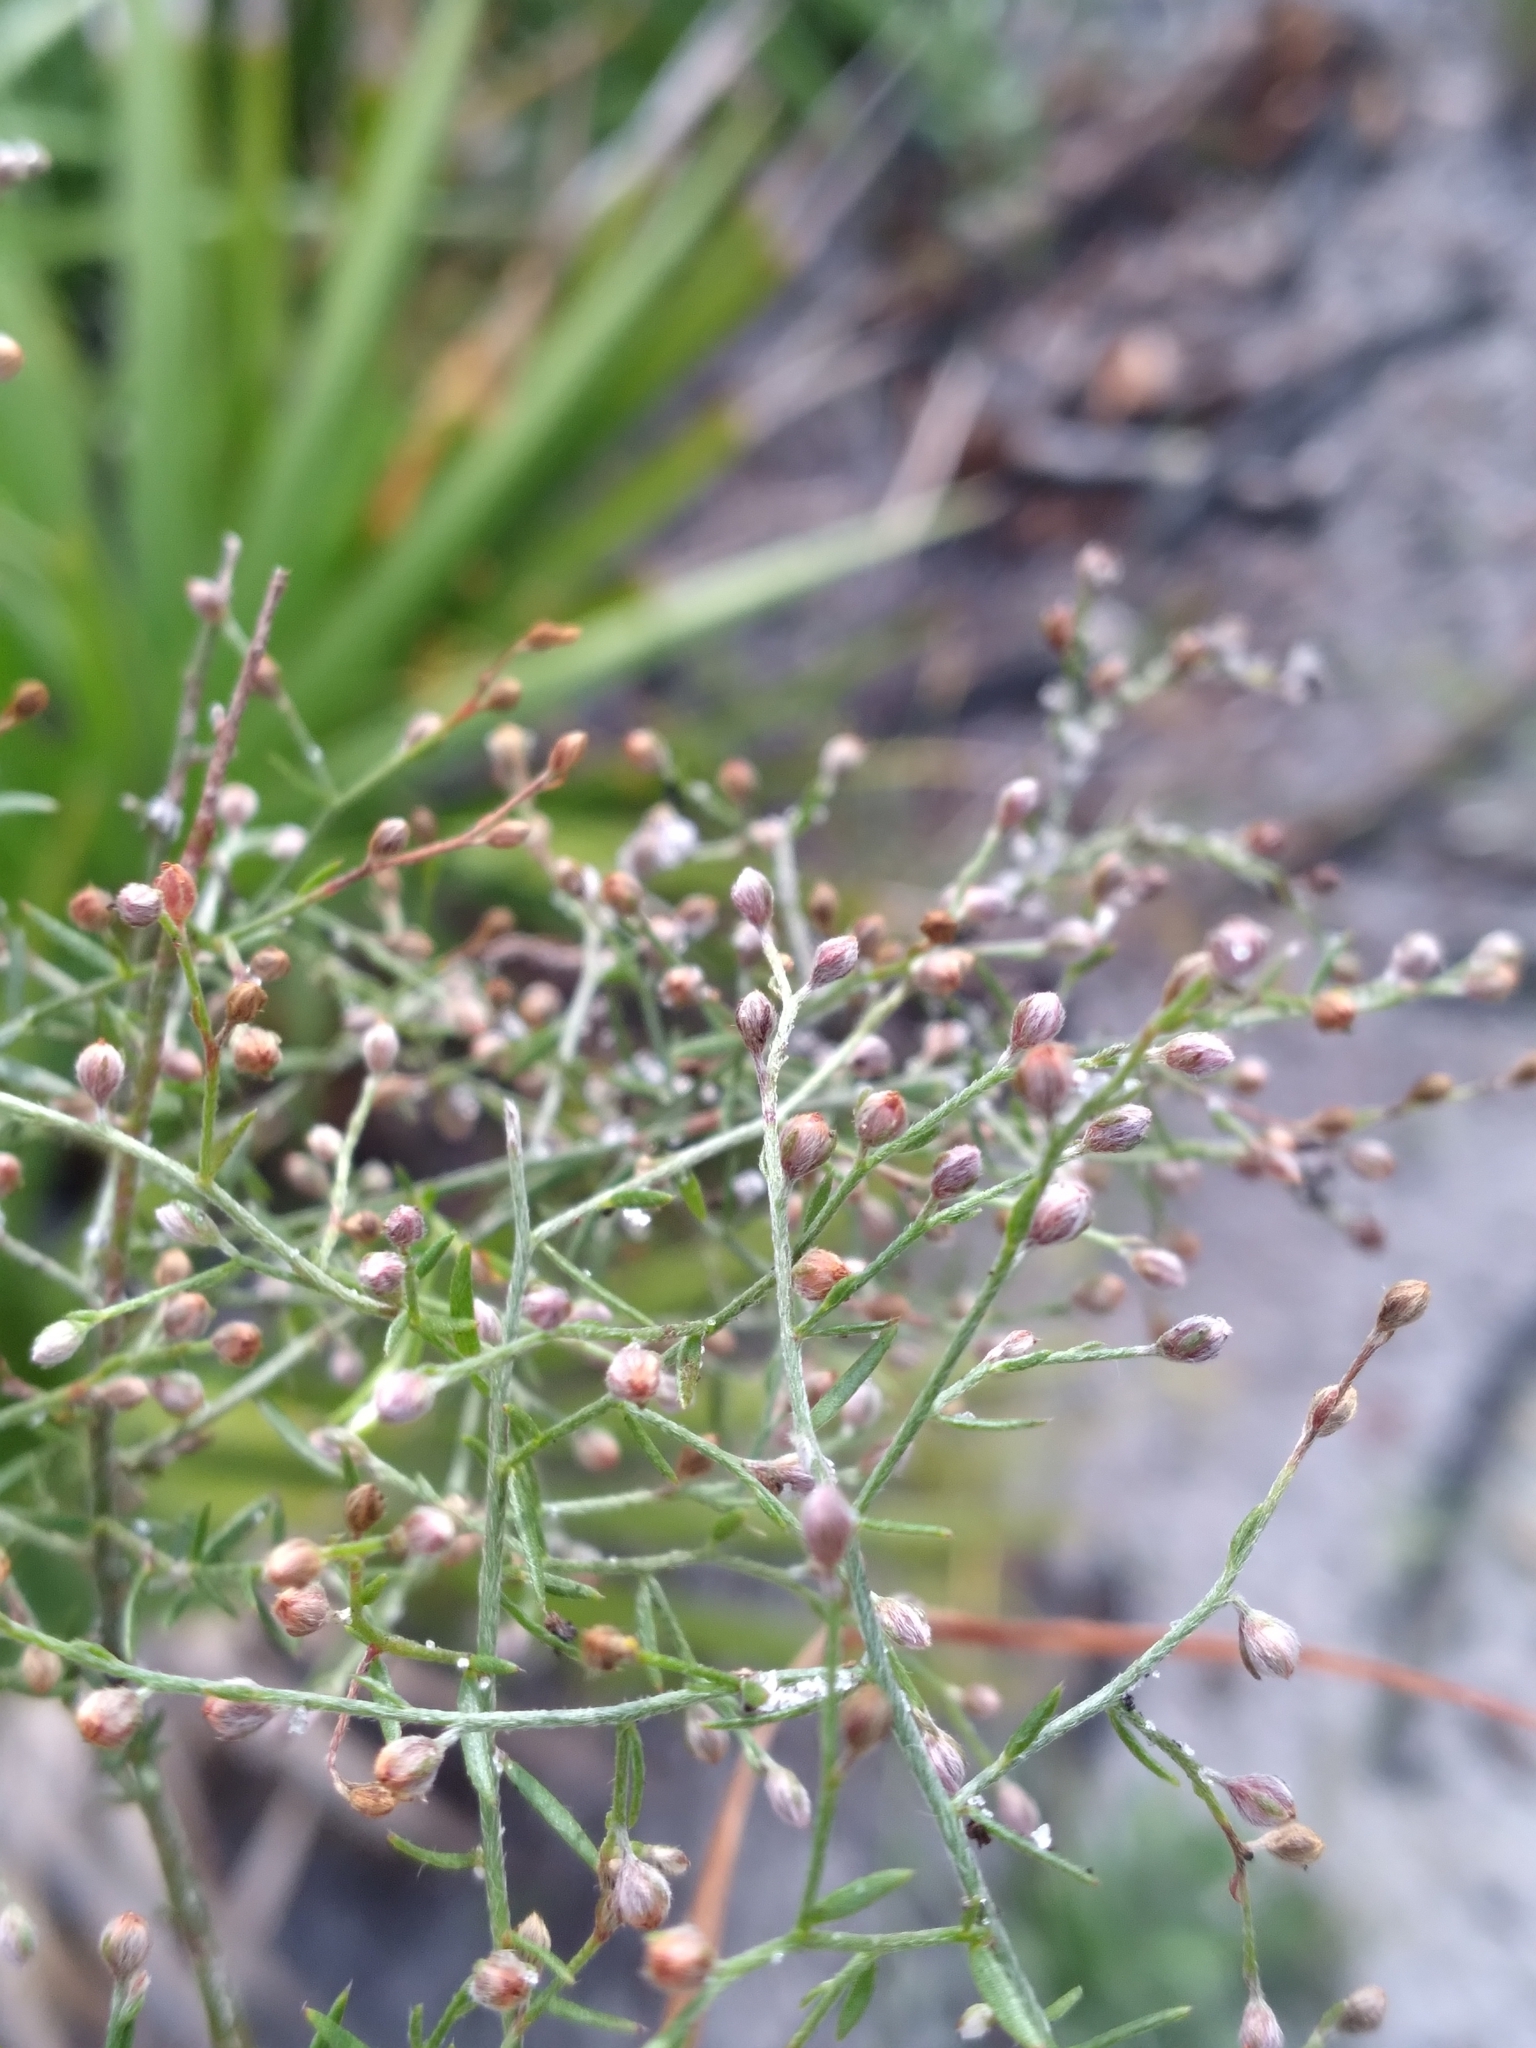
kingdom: Plantae
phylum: Tracheophyta
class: Magnoliopsida
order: Malvales
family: Cistaceae
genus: Lechea
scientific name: Lechea torreyi
